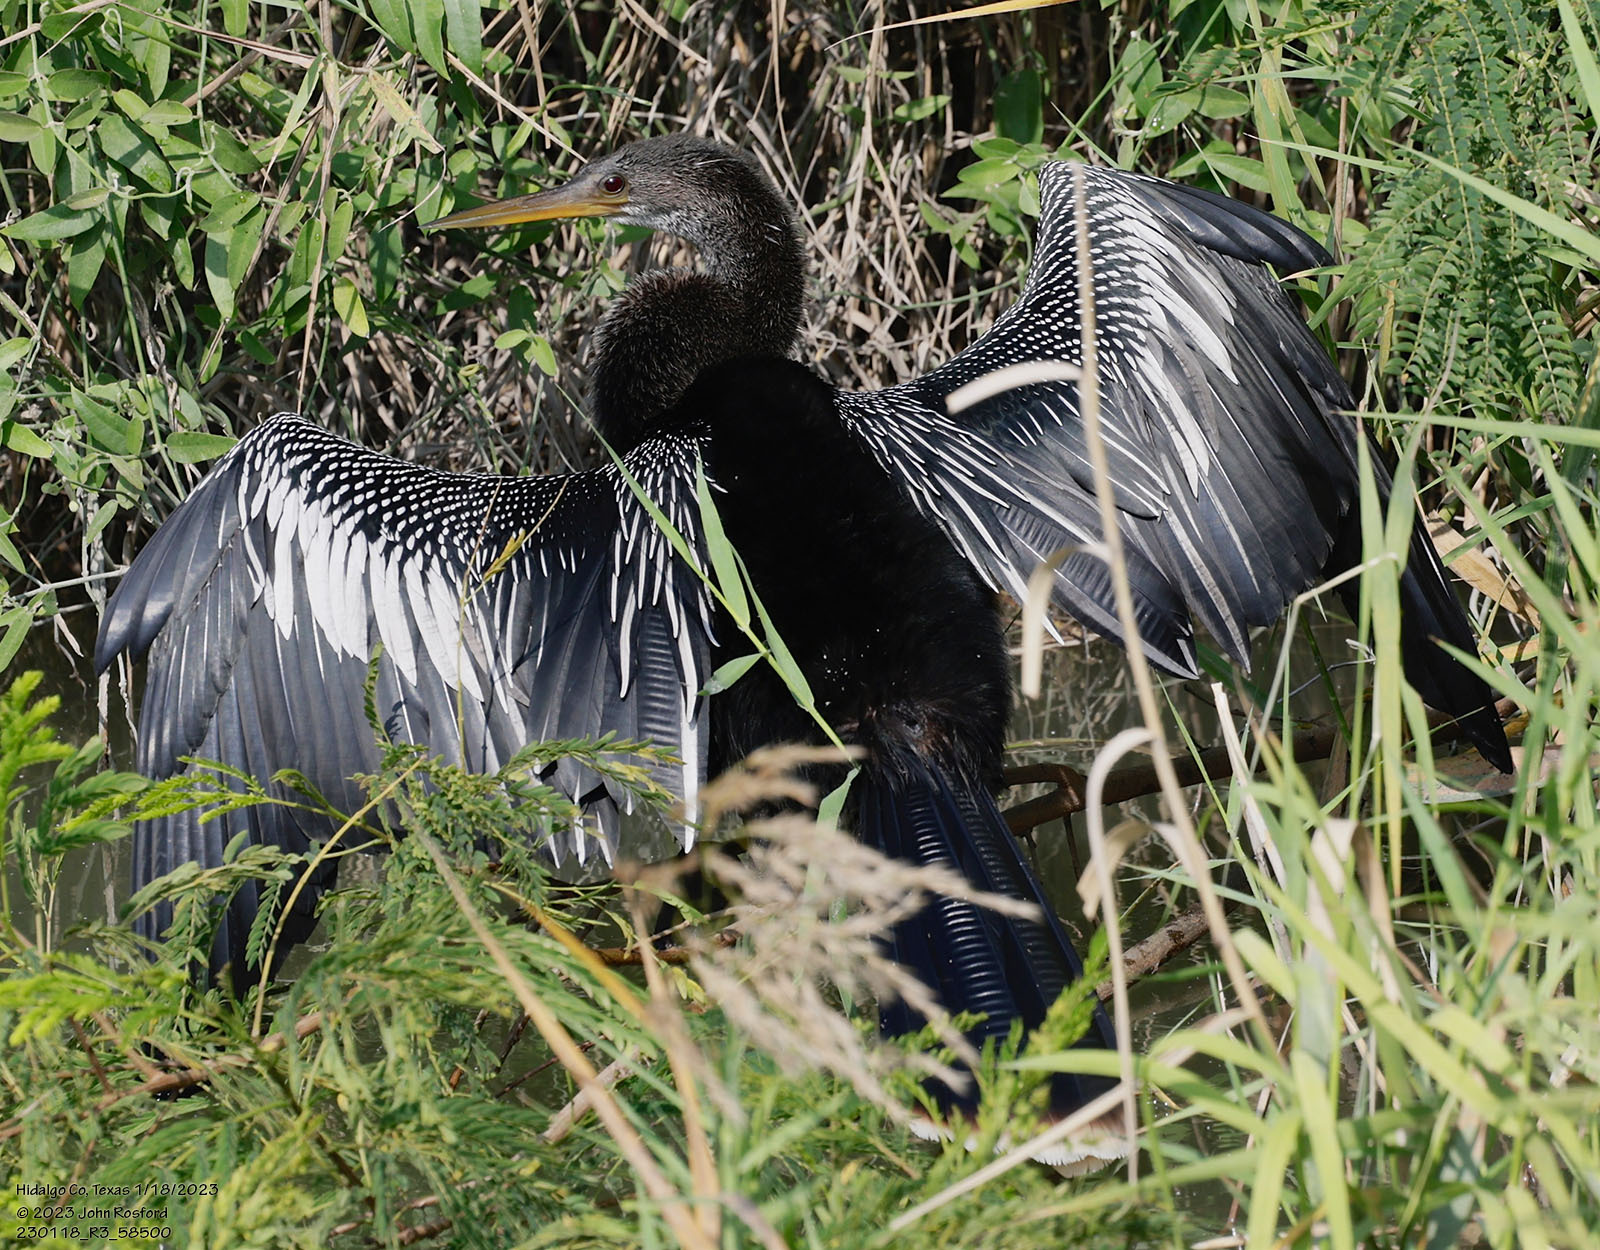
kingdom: Animalia
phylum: Chordata
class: Aves
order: Suliformes
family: Anhingidae
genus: Anhinga
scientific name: Anhinga anhinga
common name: Anhinga
